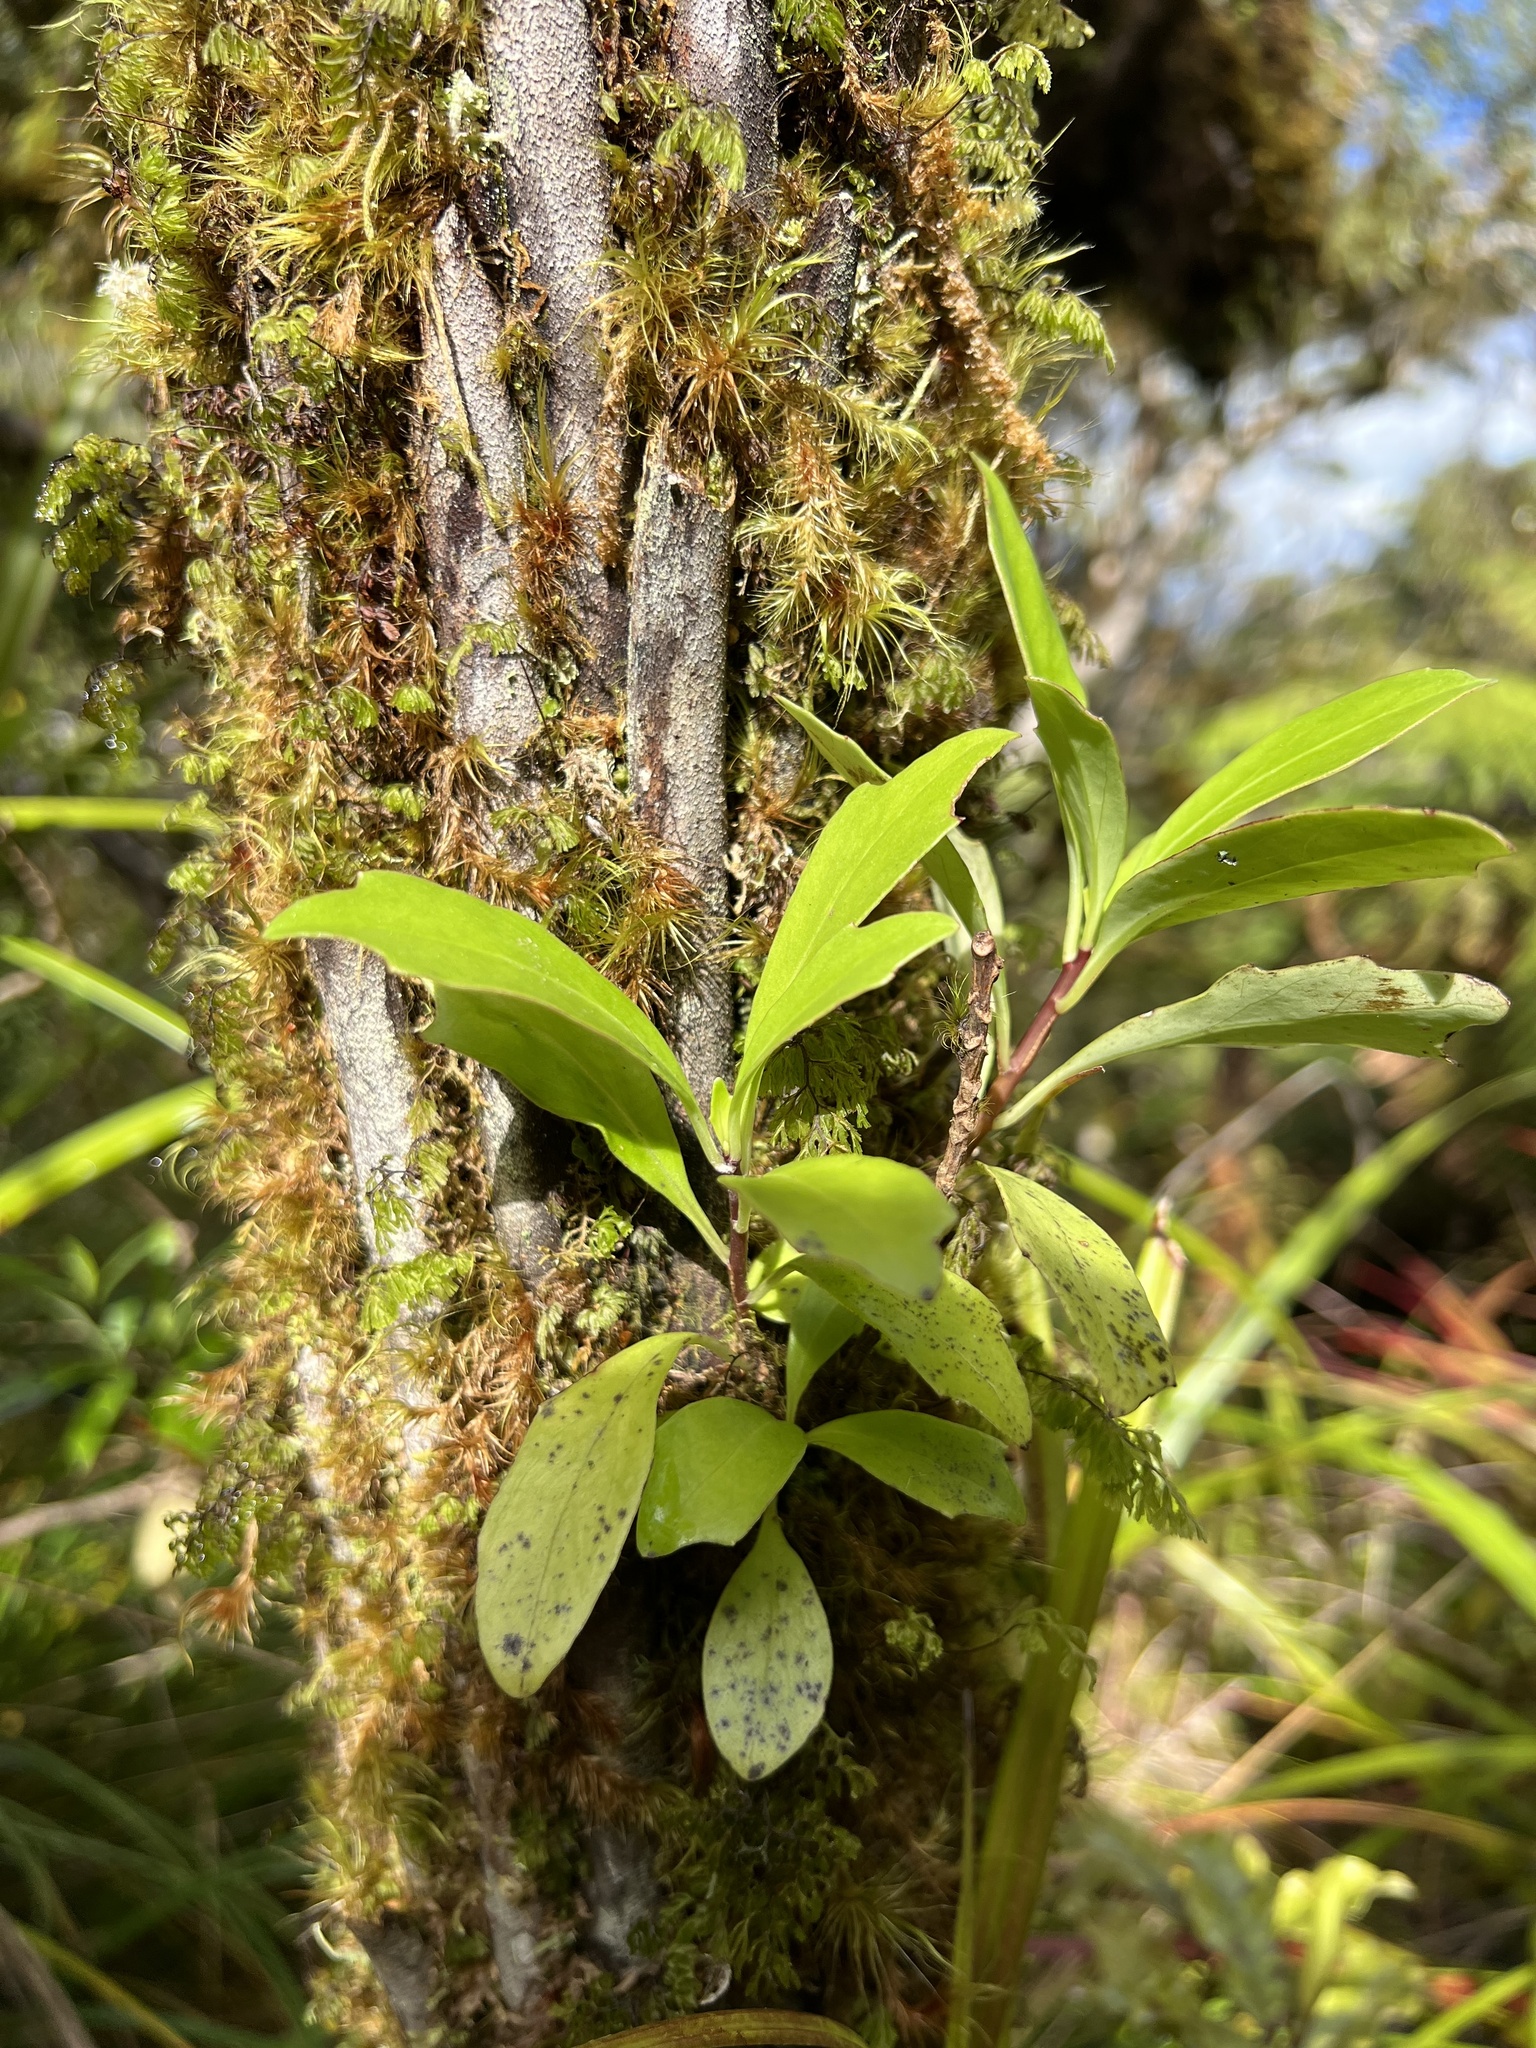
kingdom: Plantae
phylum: Tracheophyta
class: Magnoliopsida
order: Asterales
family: Asteraceae
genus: Brachyglottis
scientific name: Brachyglottis kirkii
